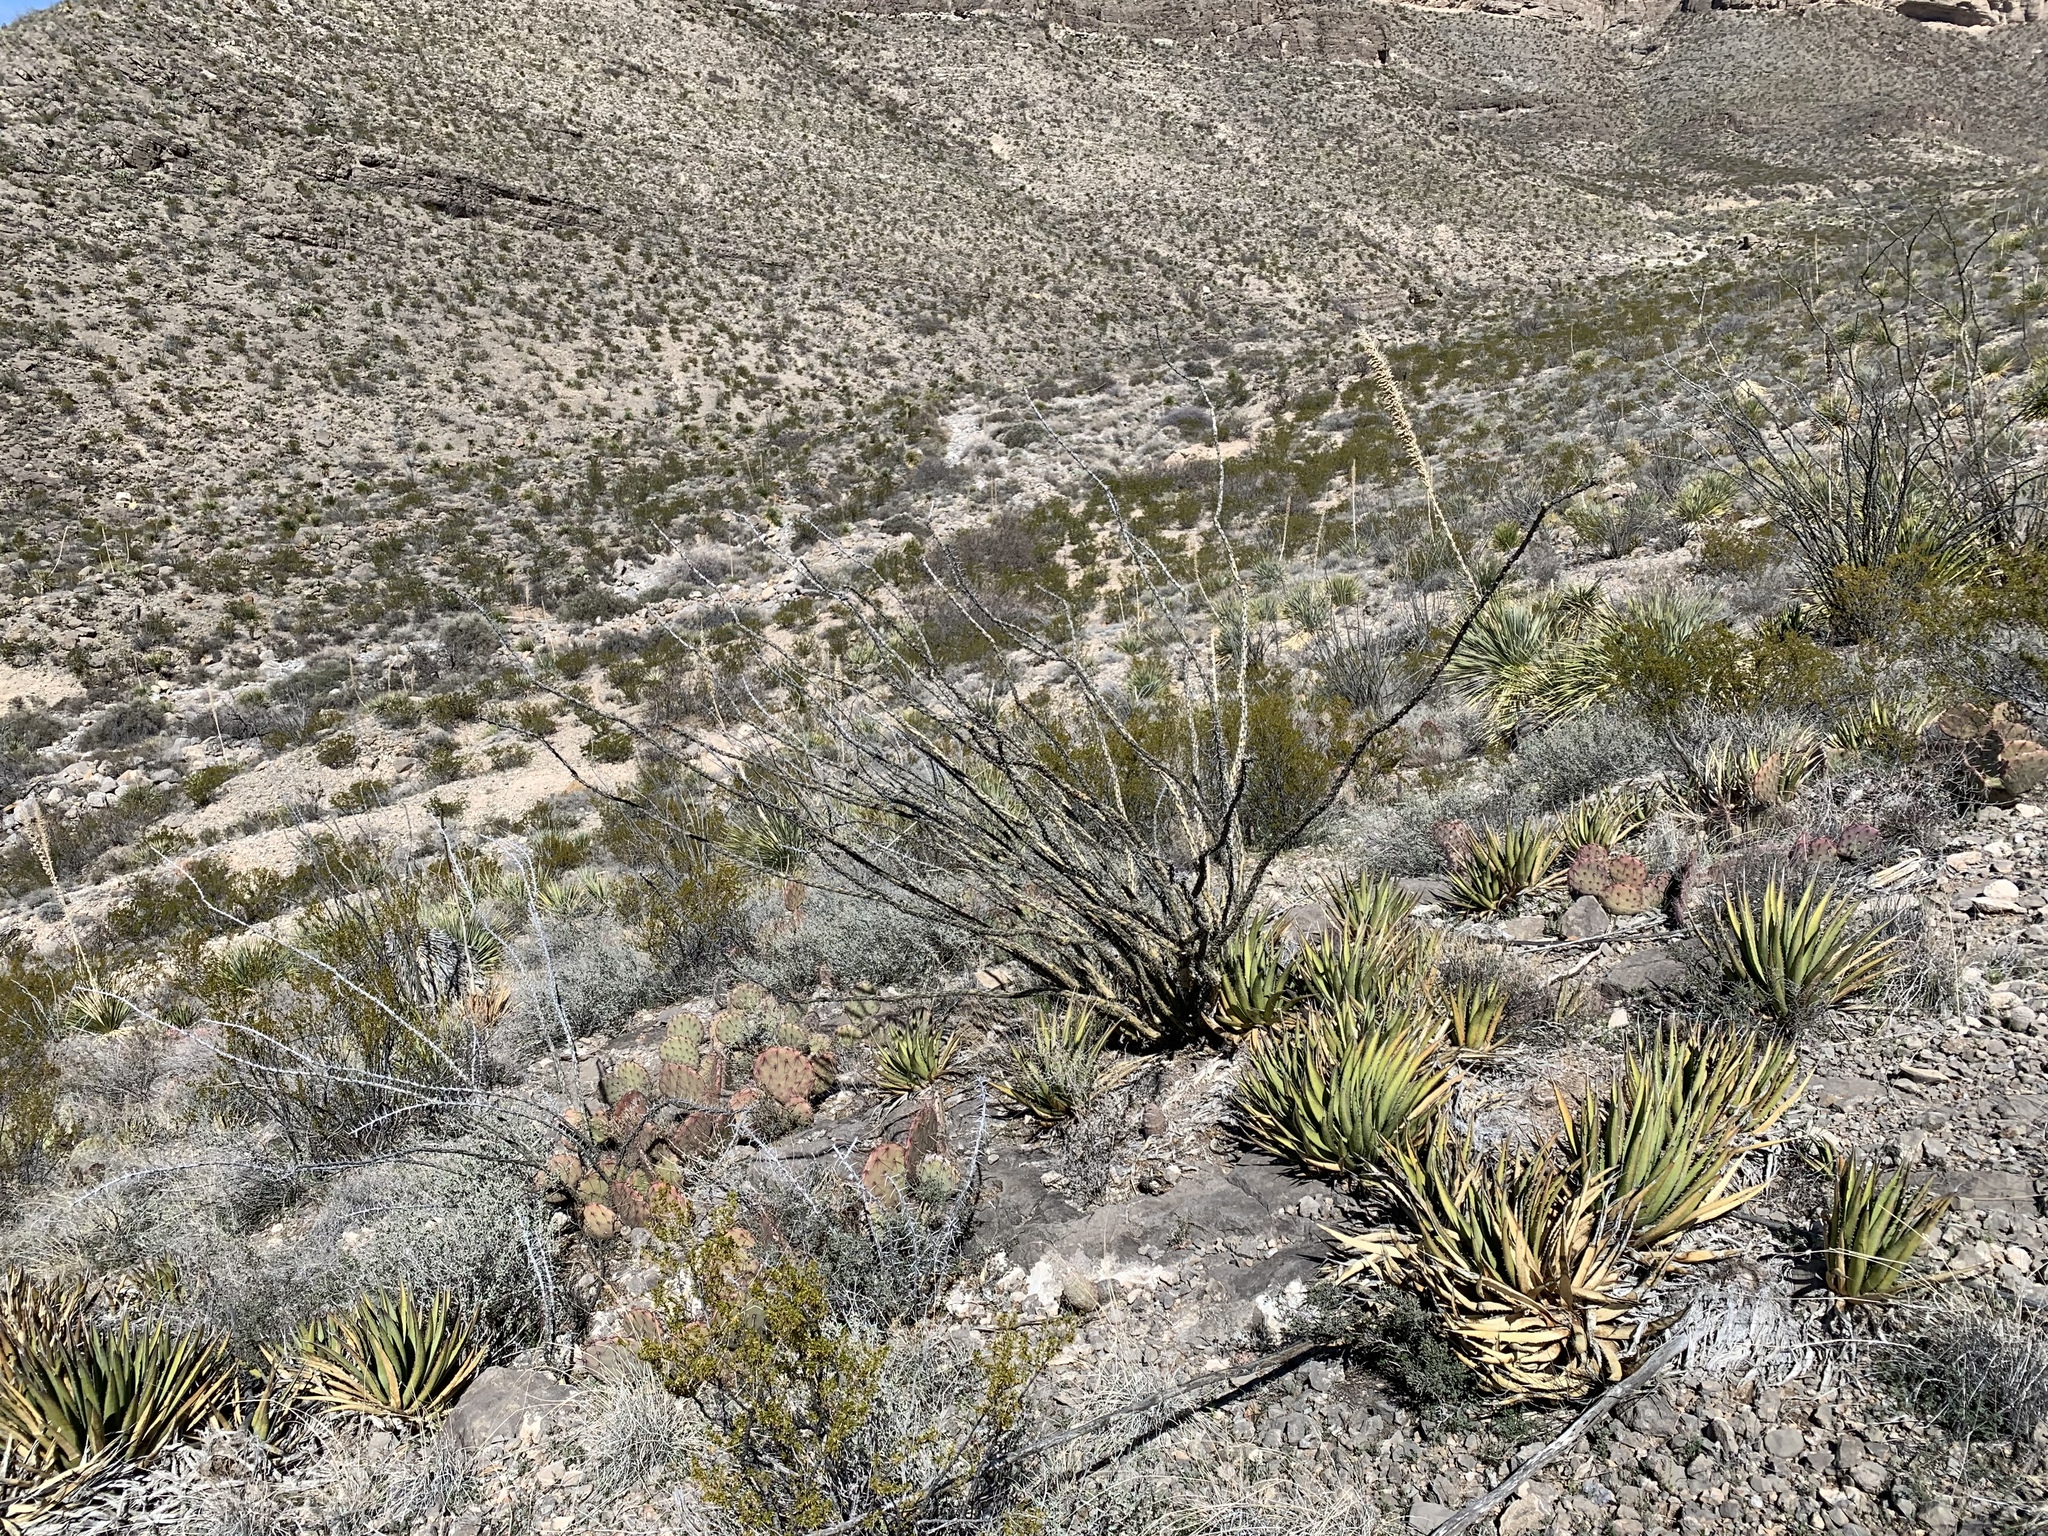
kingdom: Plantae
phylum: Tracheophyta
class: Magnoliopsida
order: Ericales
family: Fouquieriaceae
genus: Fouquieria
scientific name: Fouquieria splendens
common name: Vine-cactus
